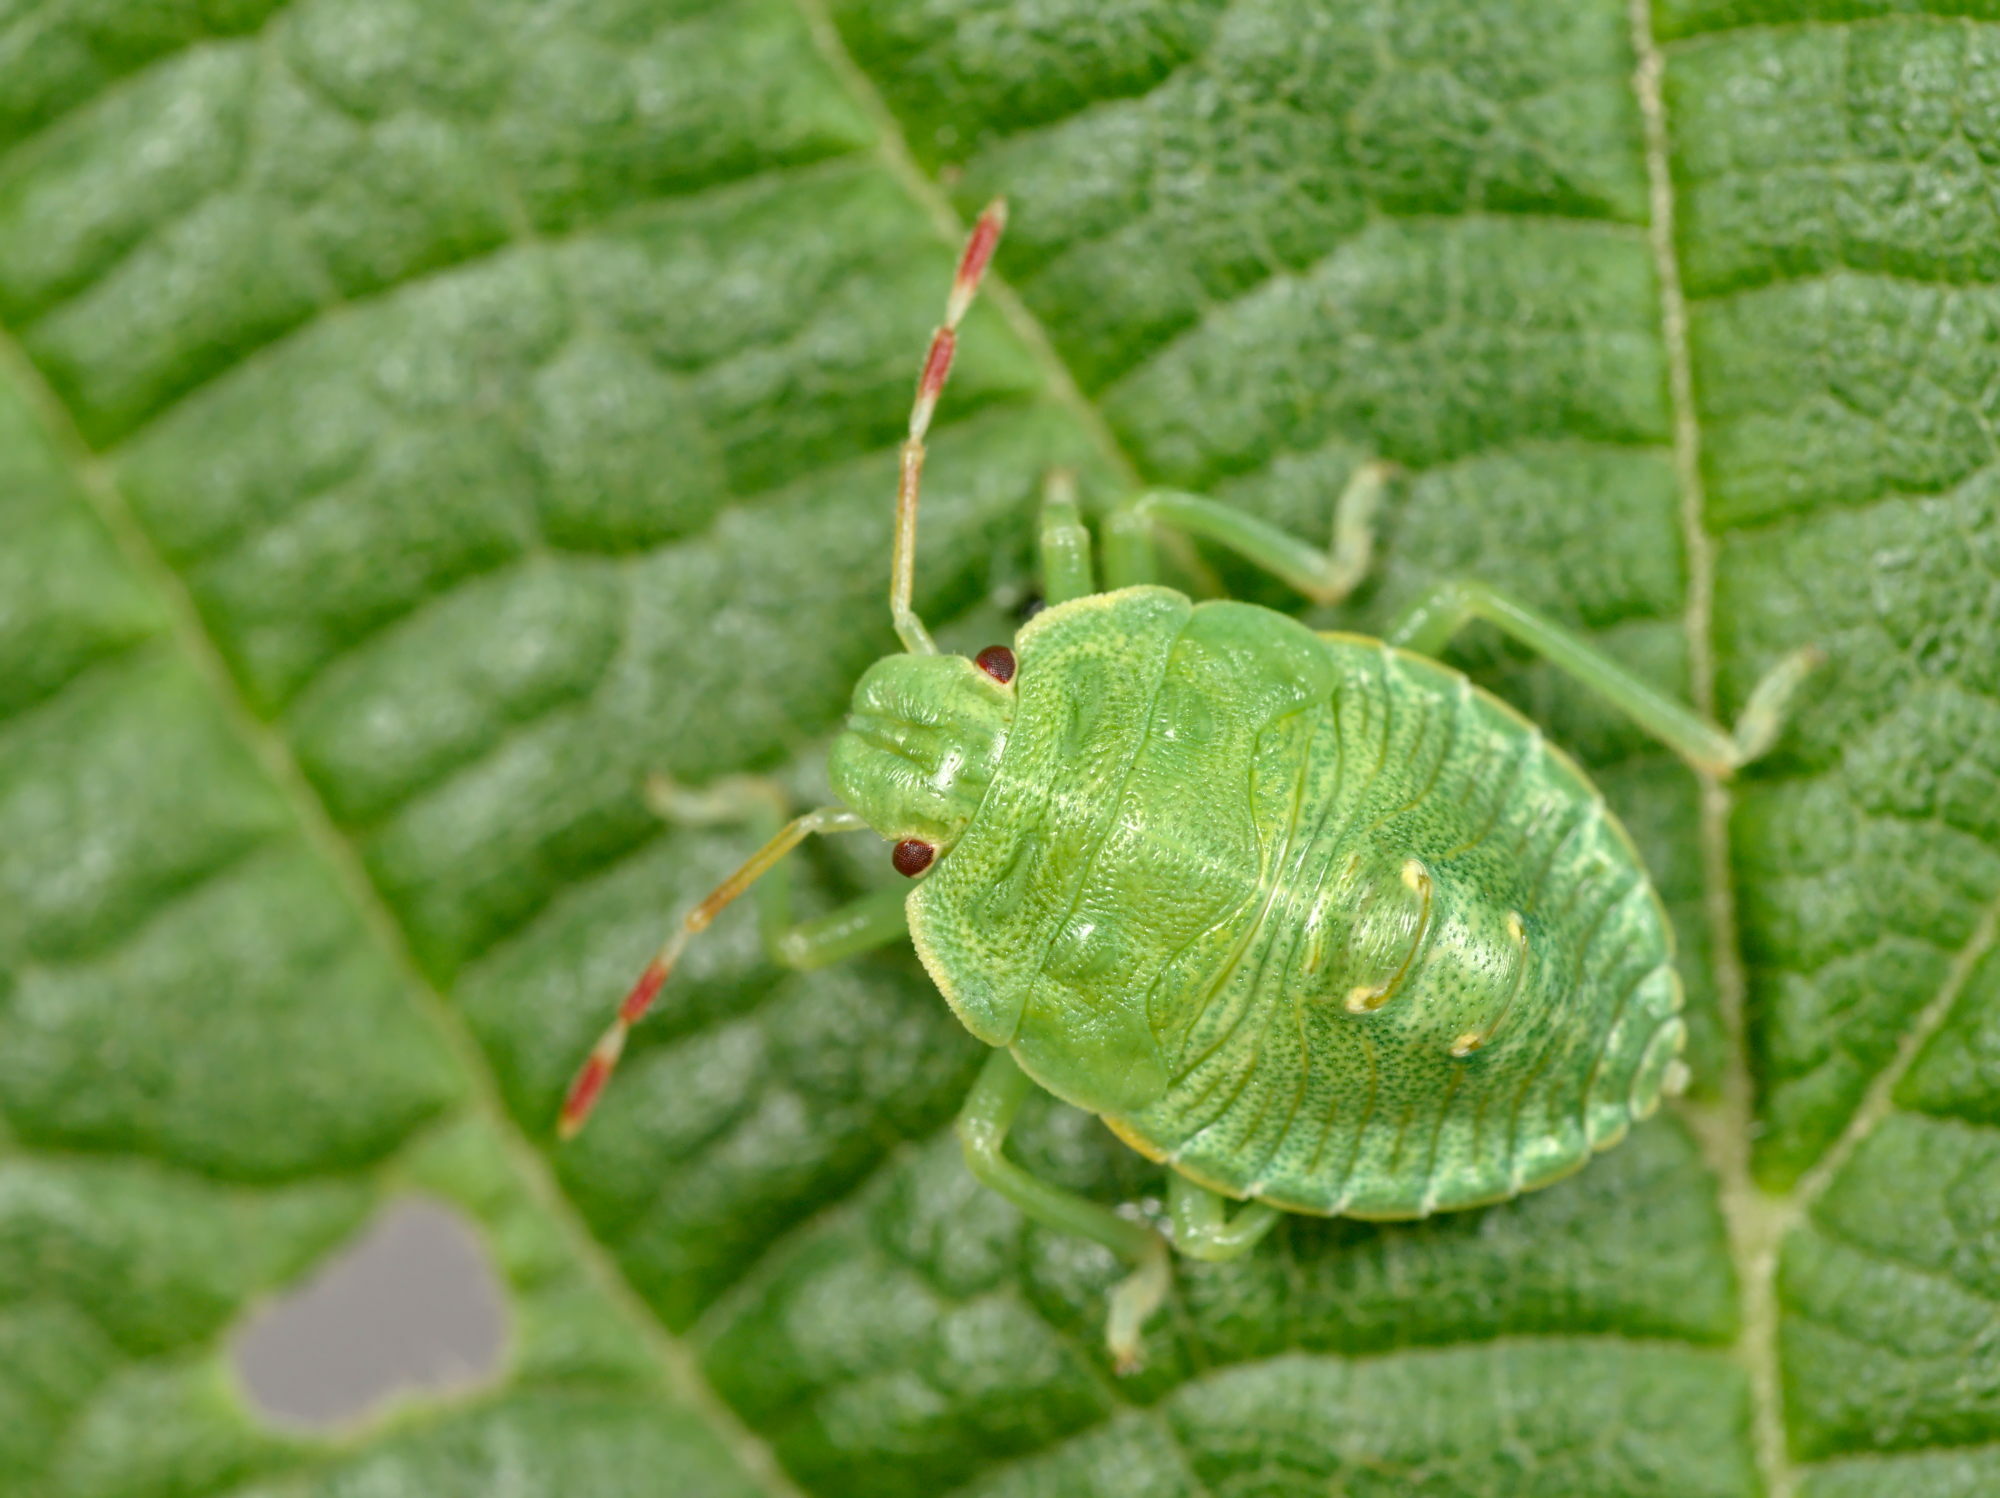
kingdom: Animalia
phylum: Arthropoda
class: Insecta
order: Hemiptera
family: Pentatomidae
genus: Palomena
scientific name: Palomena prasina
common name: Green shieldbug
